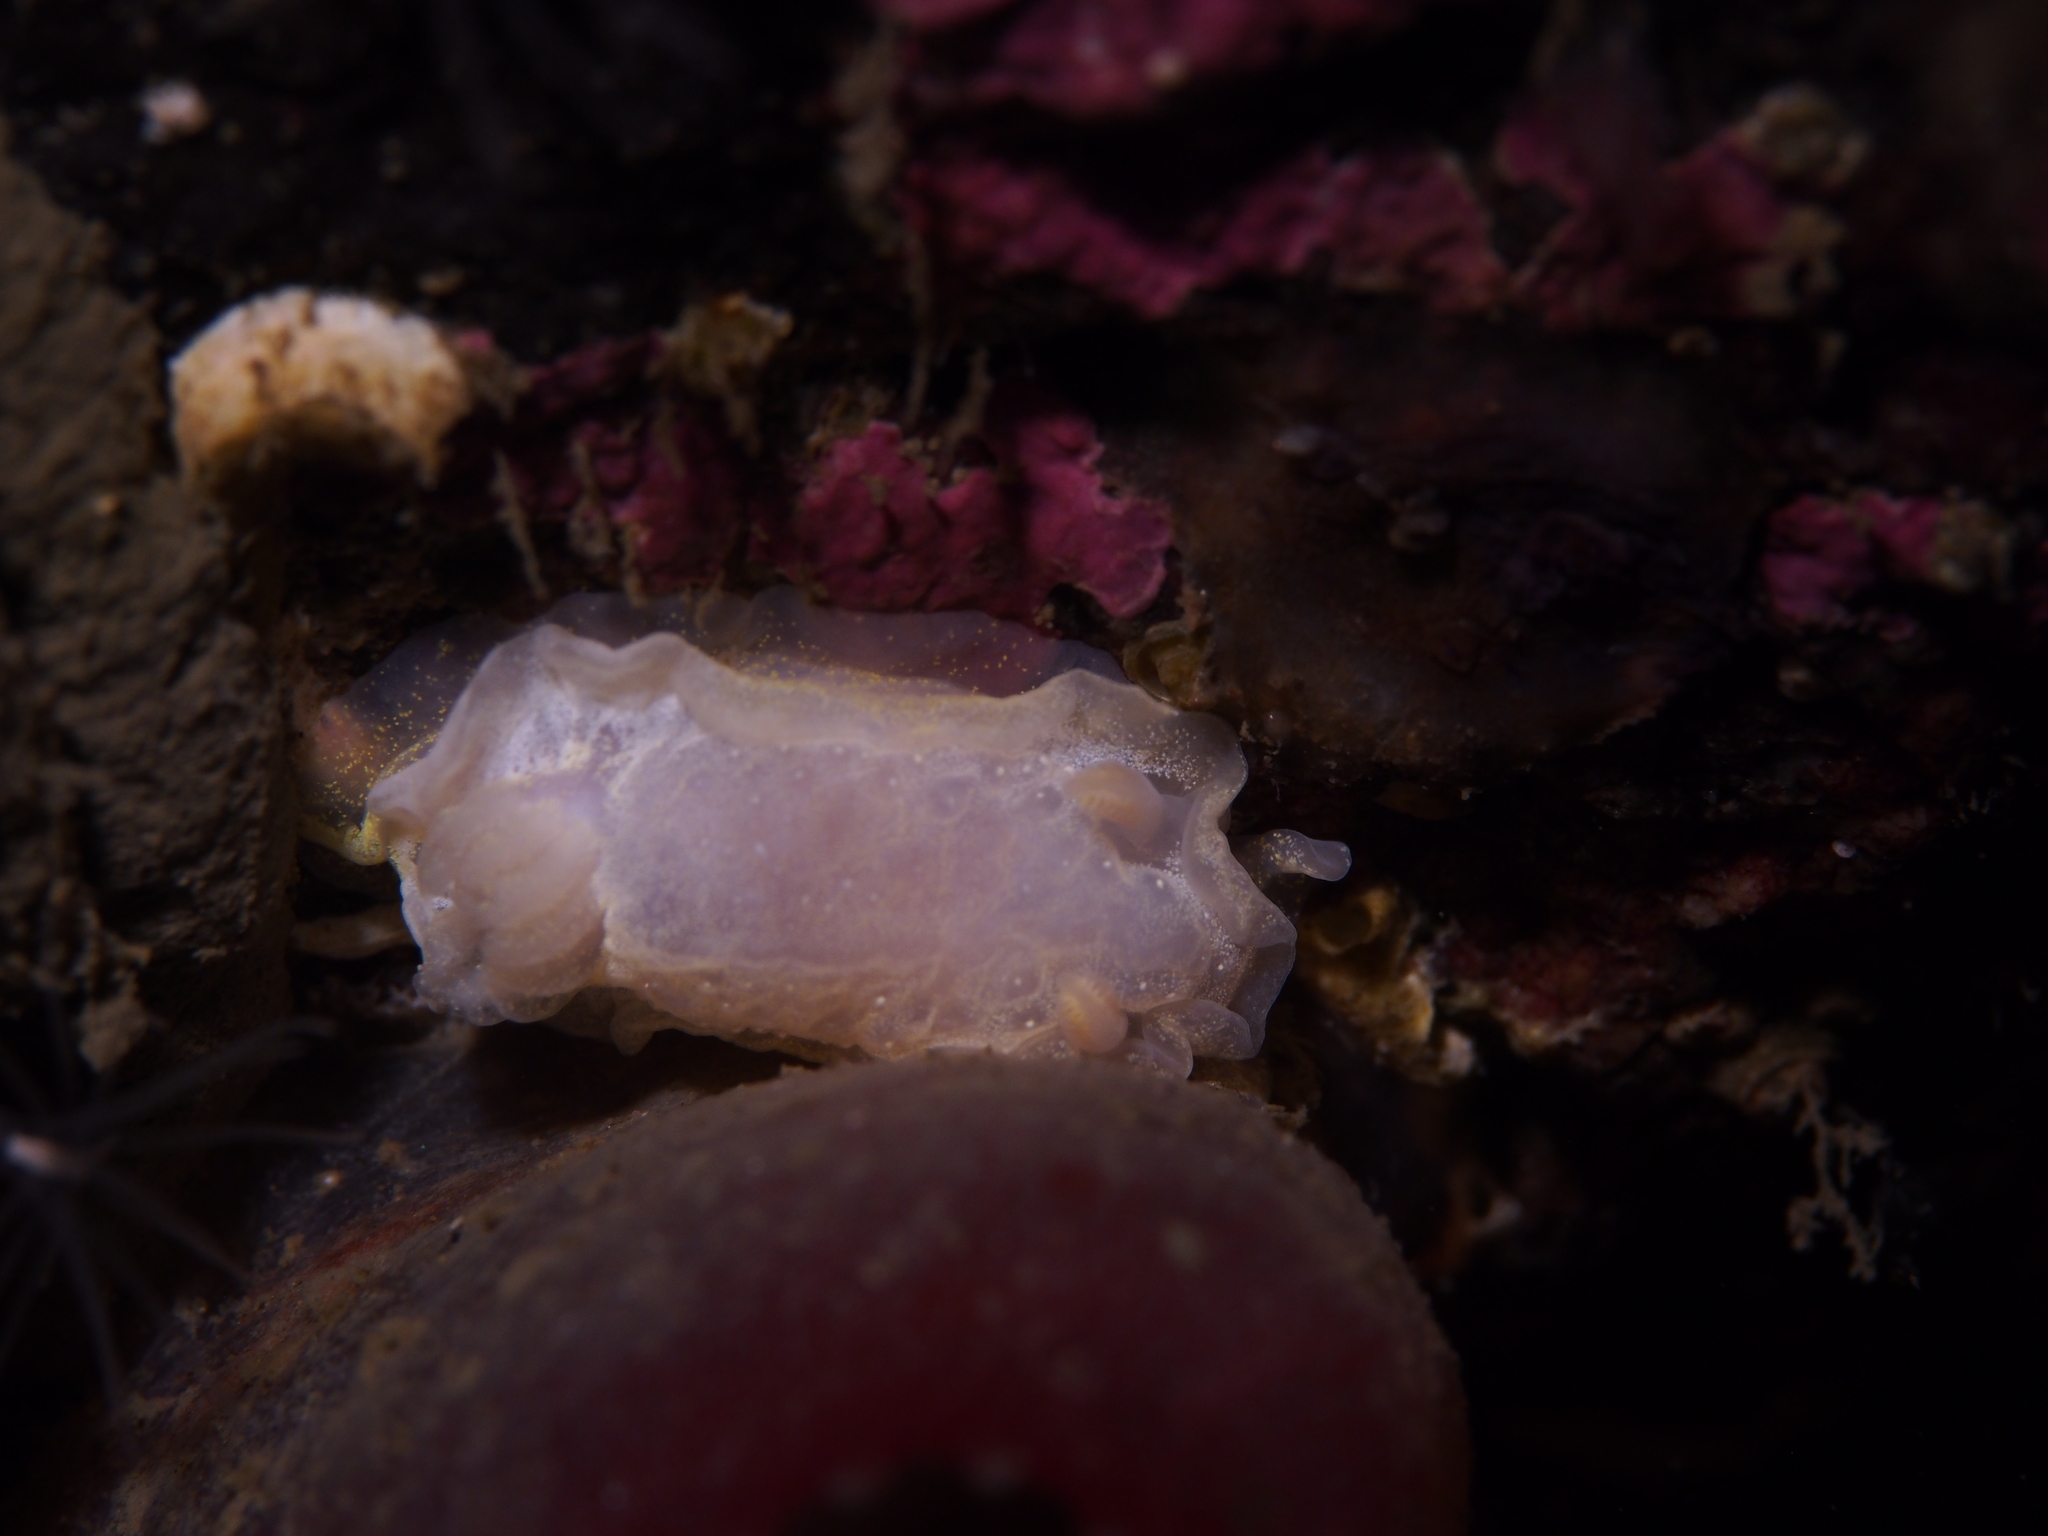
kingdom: Animalia
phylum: Mollusca
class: Gastropoda
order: Nudibranchia
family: Goniodorididae
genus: Okenia
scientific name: Okenia
